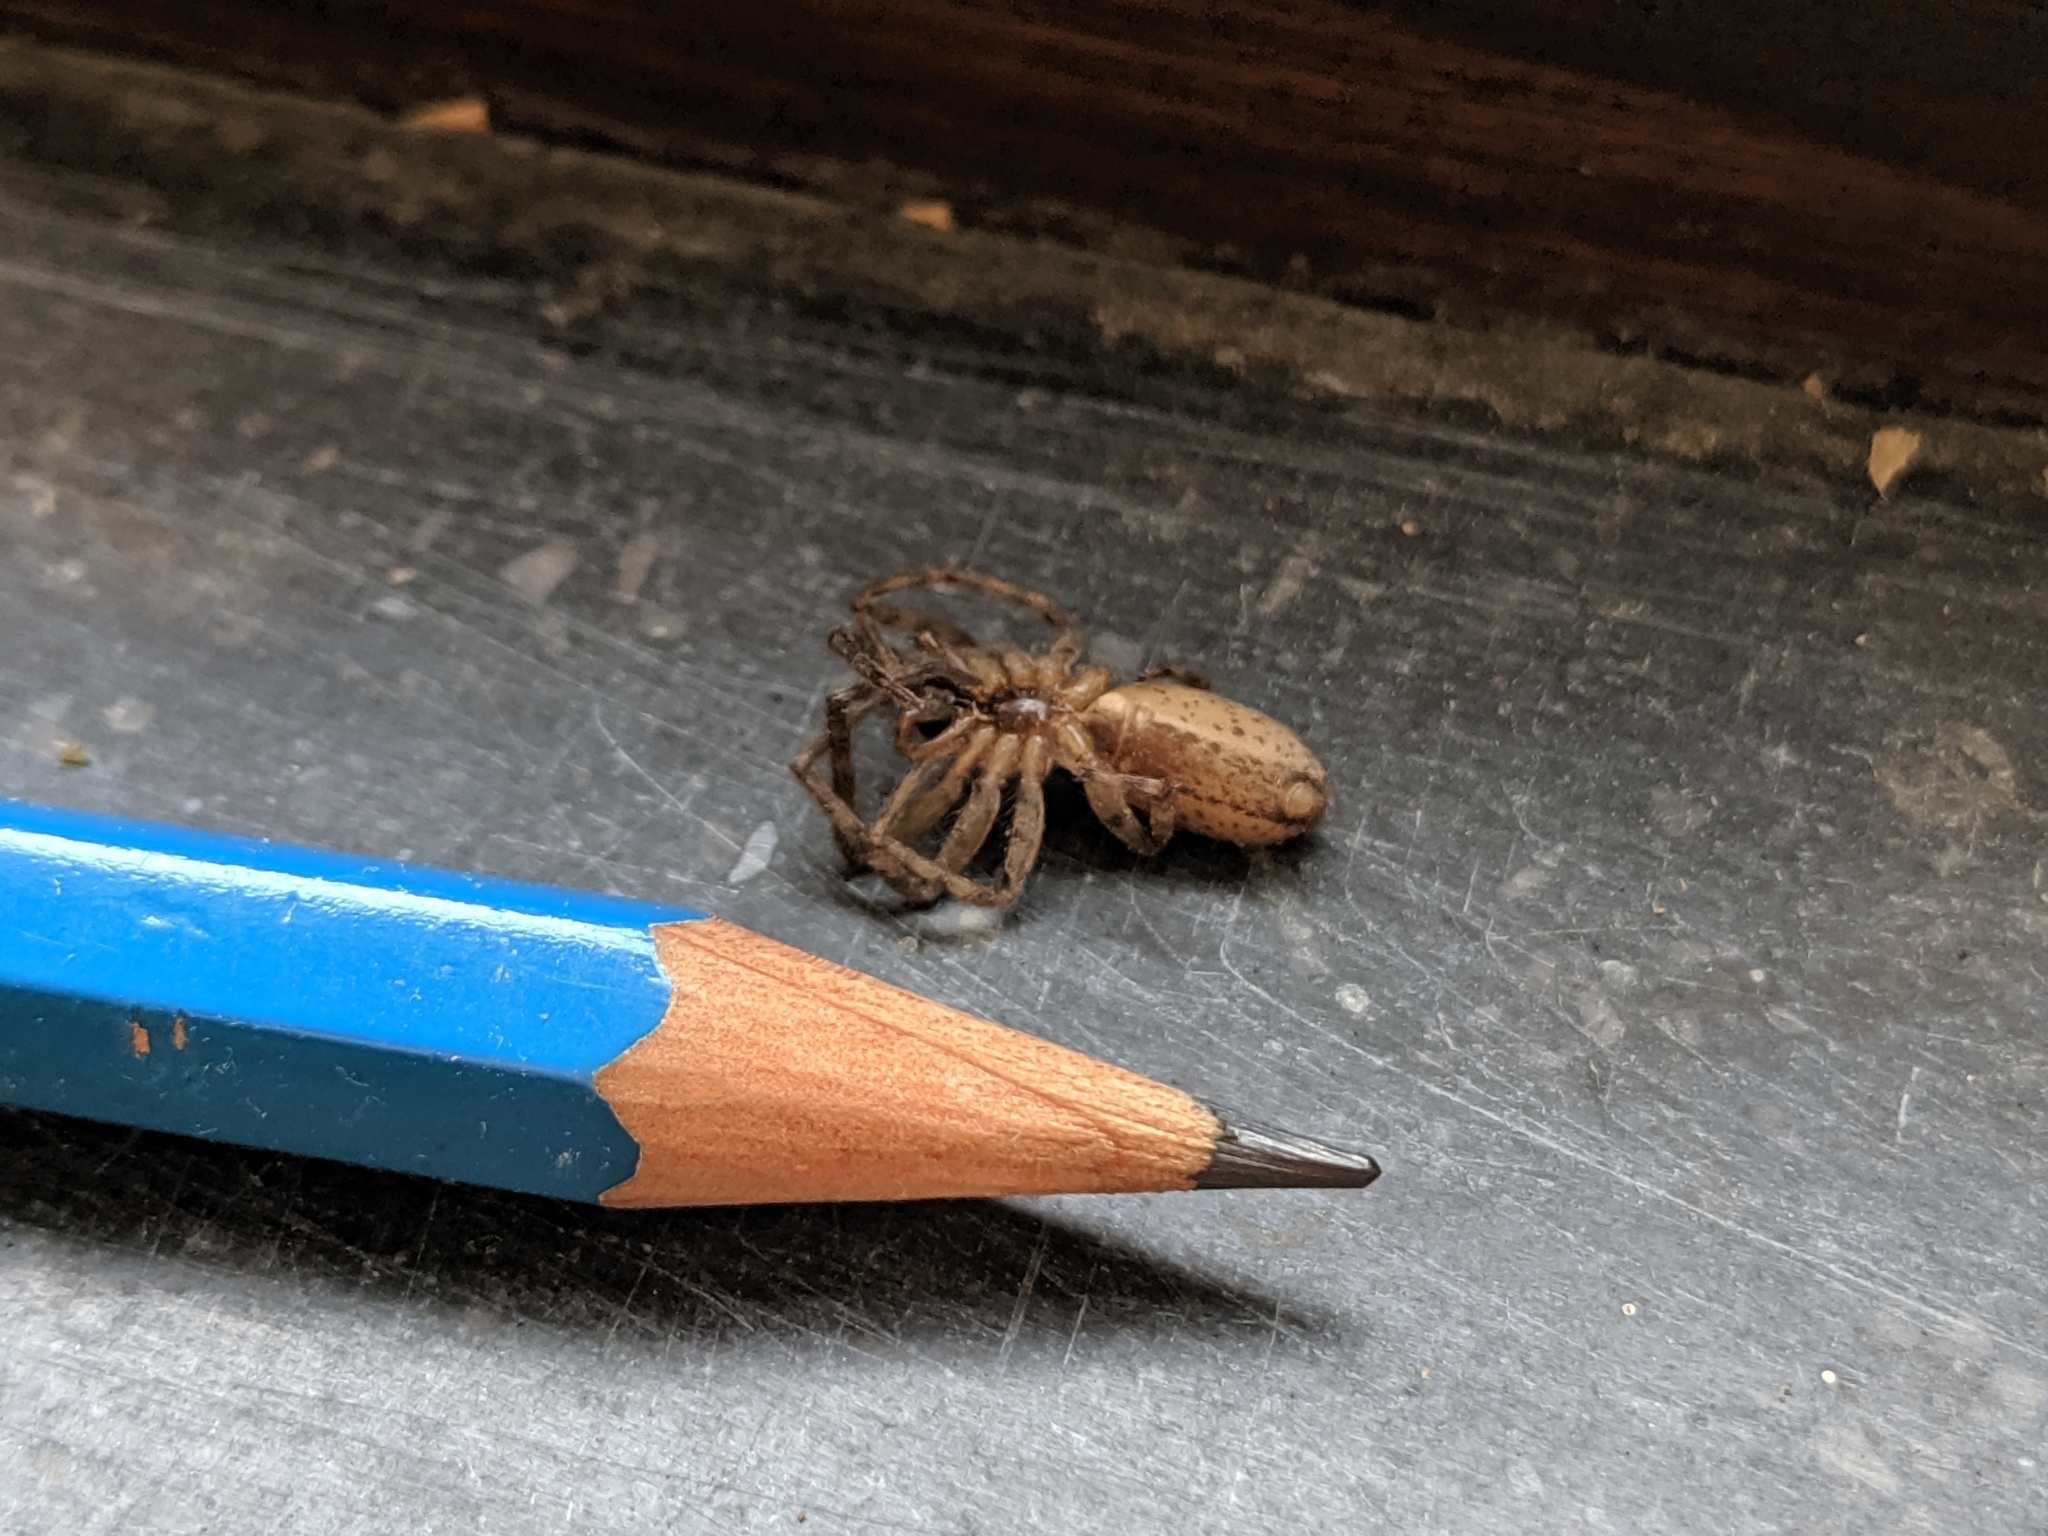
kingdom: Animalia
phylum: Arthropoda
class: Arachnida
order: Araneae
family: Segestriidae
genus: Segestria
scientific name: Segestria bavarica
